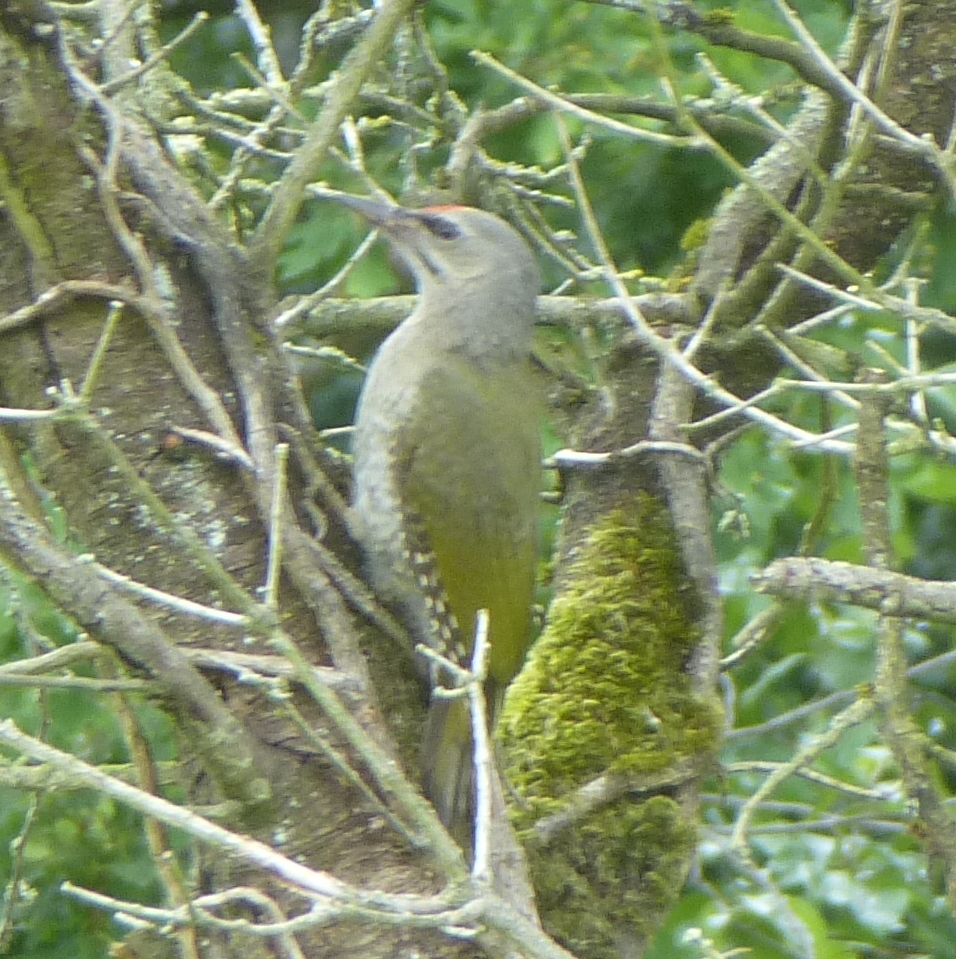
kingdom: Animalia
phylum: Chordata
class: Aves
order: Piciformes
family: Picidae
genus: Picus
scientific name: Picus canus
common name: Grey-headed woodpecker
